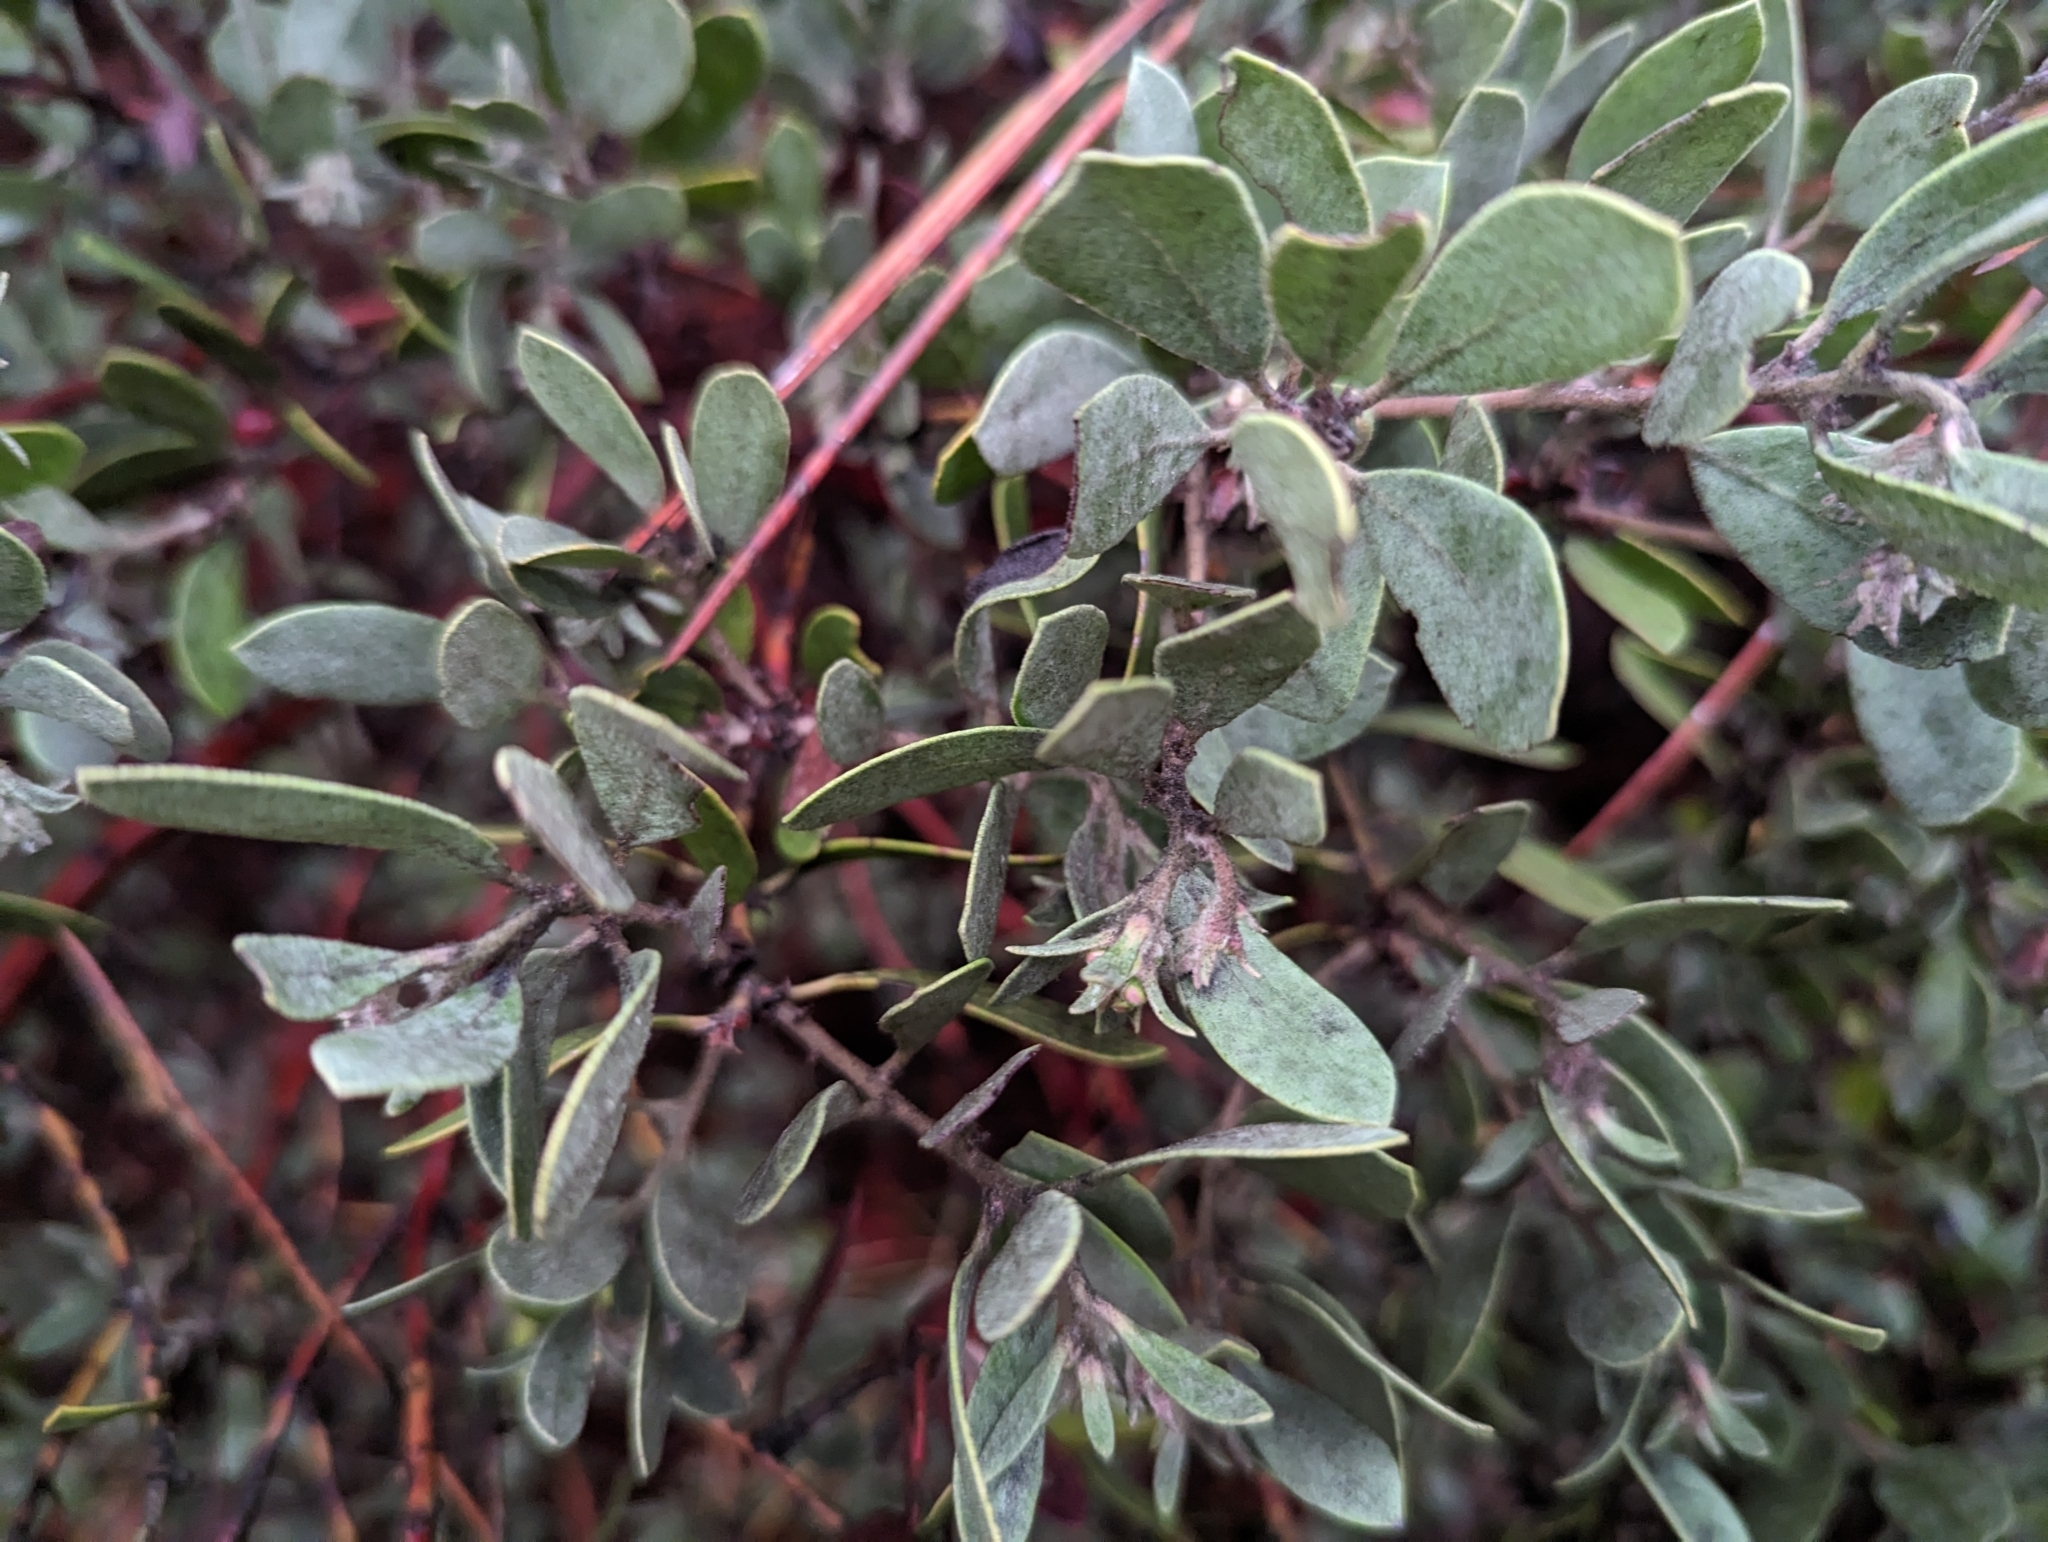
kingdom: Plantae
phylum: Tracheophyta
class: Magnoliopsida
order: Ericales
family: Ericaceae
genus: Arctostaphylos
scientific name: Arctostaphylos silvicola
